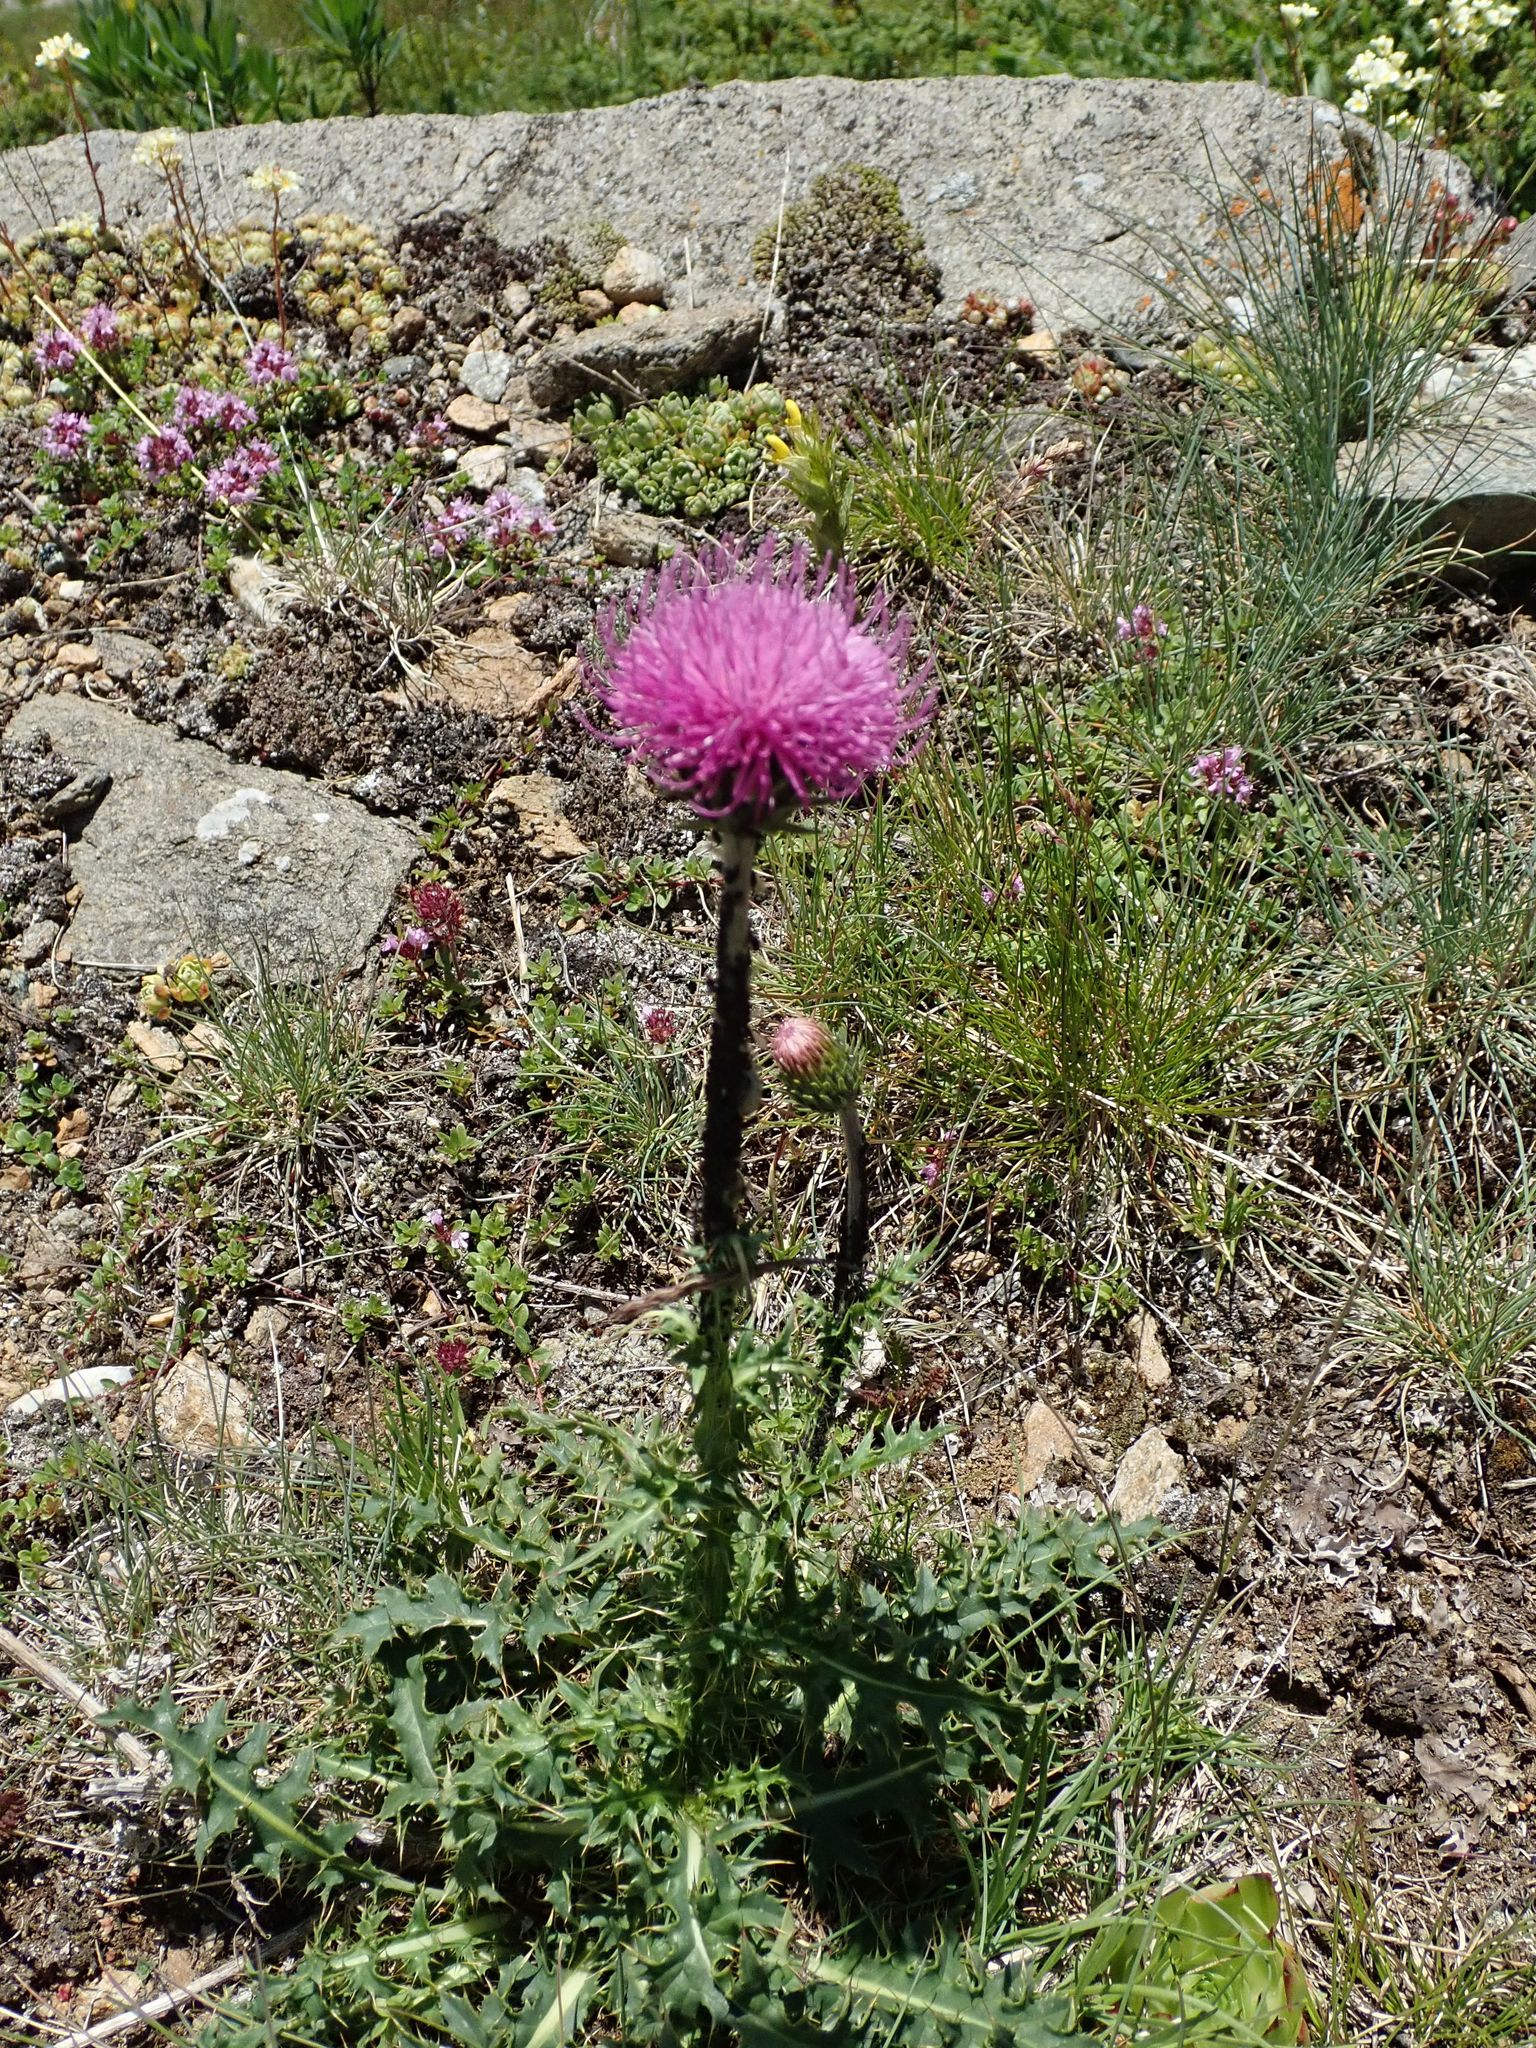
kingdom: Plantae
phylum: Tracheophyta
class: Magnoliopsida
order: Asterales
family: Asteraceae
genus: Carduus
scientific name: Carduus defloratus
